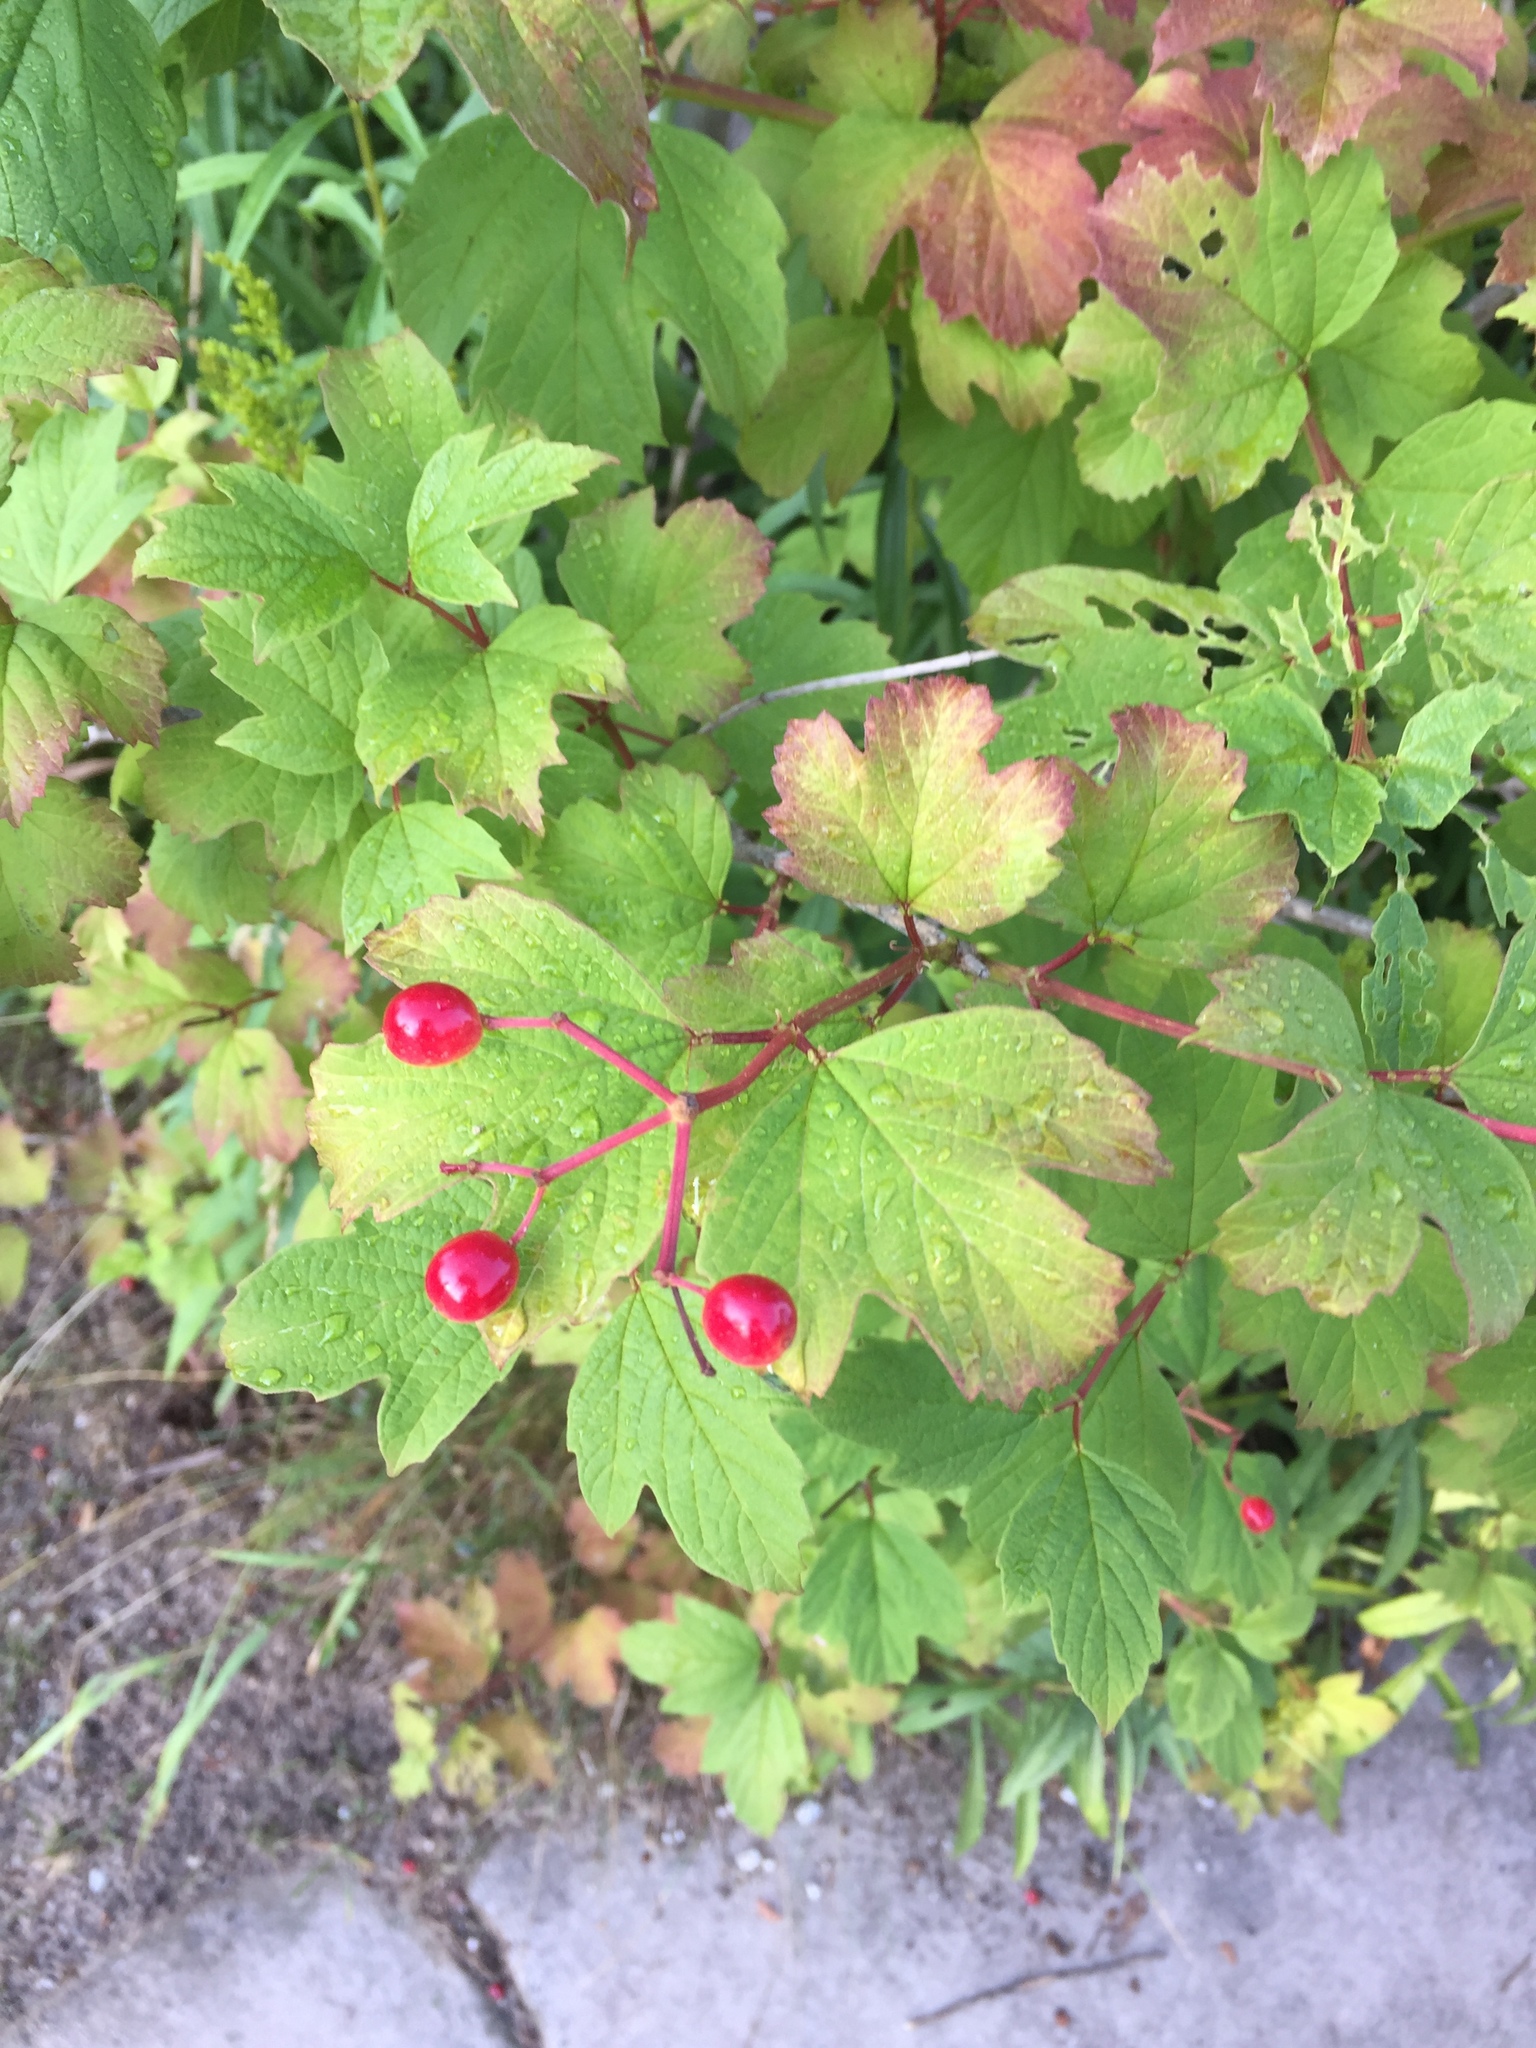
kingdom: Plantae
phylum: Tracheophyta
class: Magnoliopsida
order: Dipsacales
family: Viburnaceae
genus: Viburnum
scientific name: Viburnum opulus
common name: Guelder-rose
